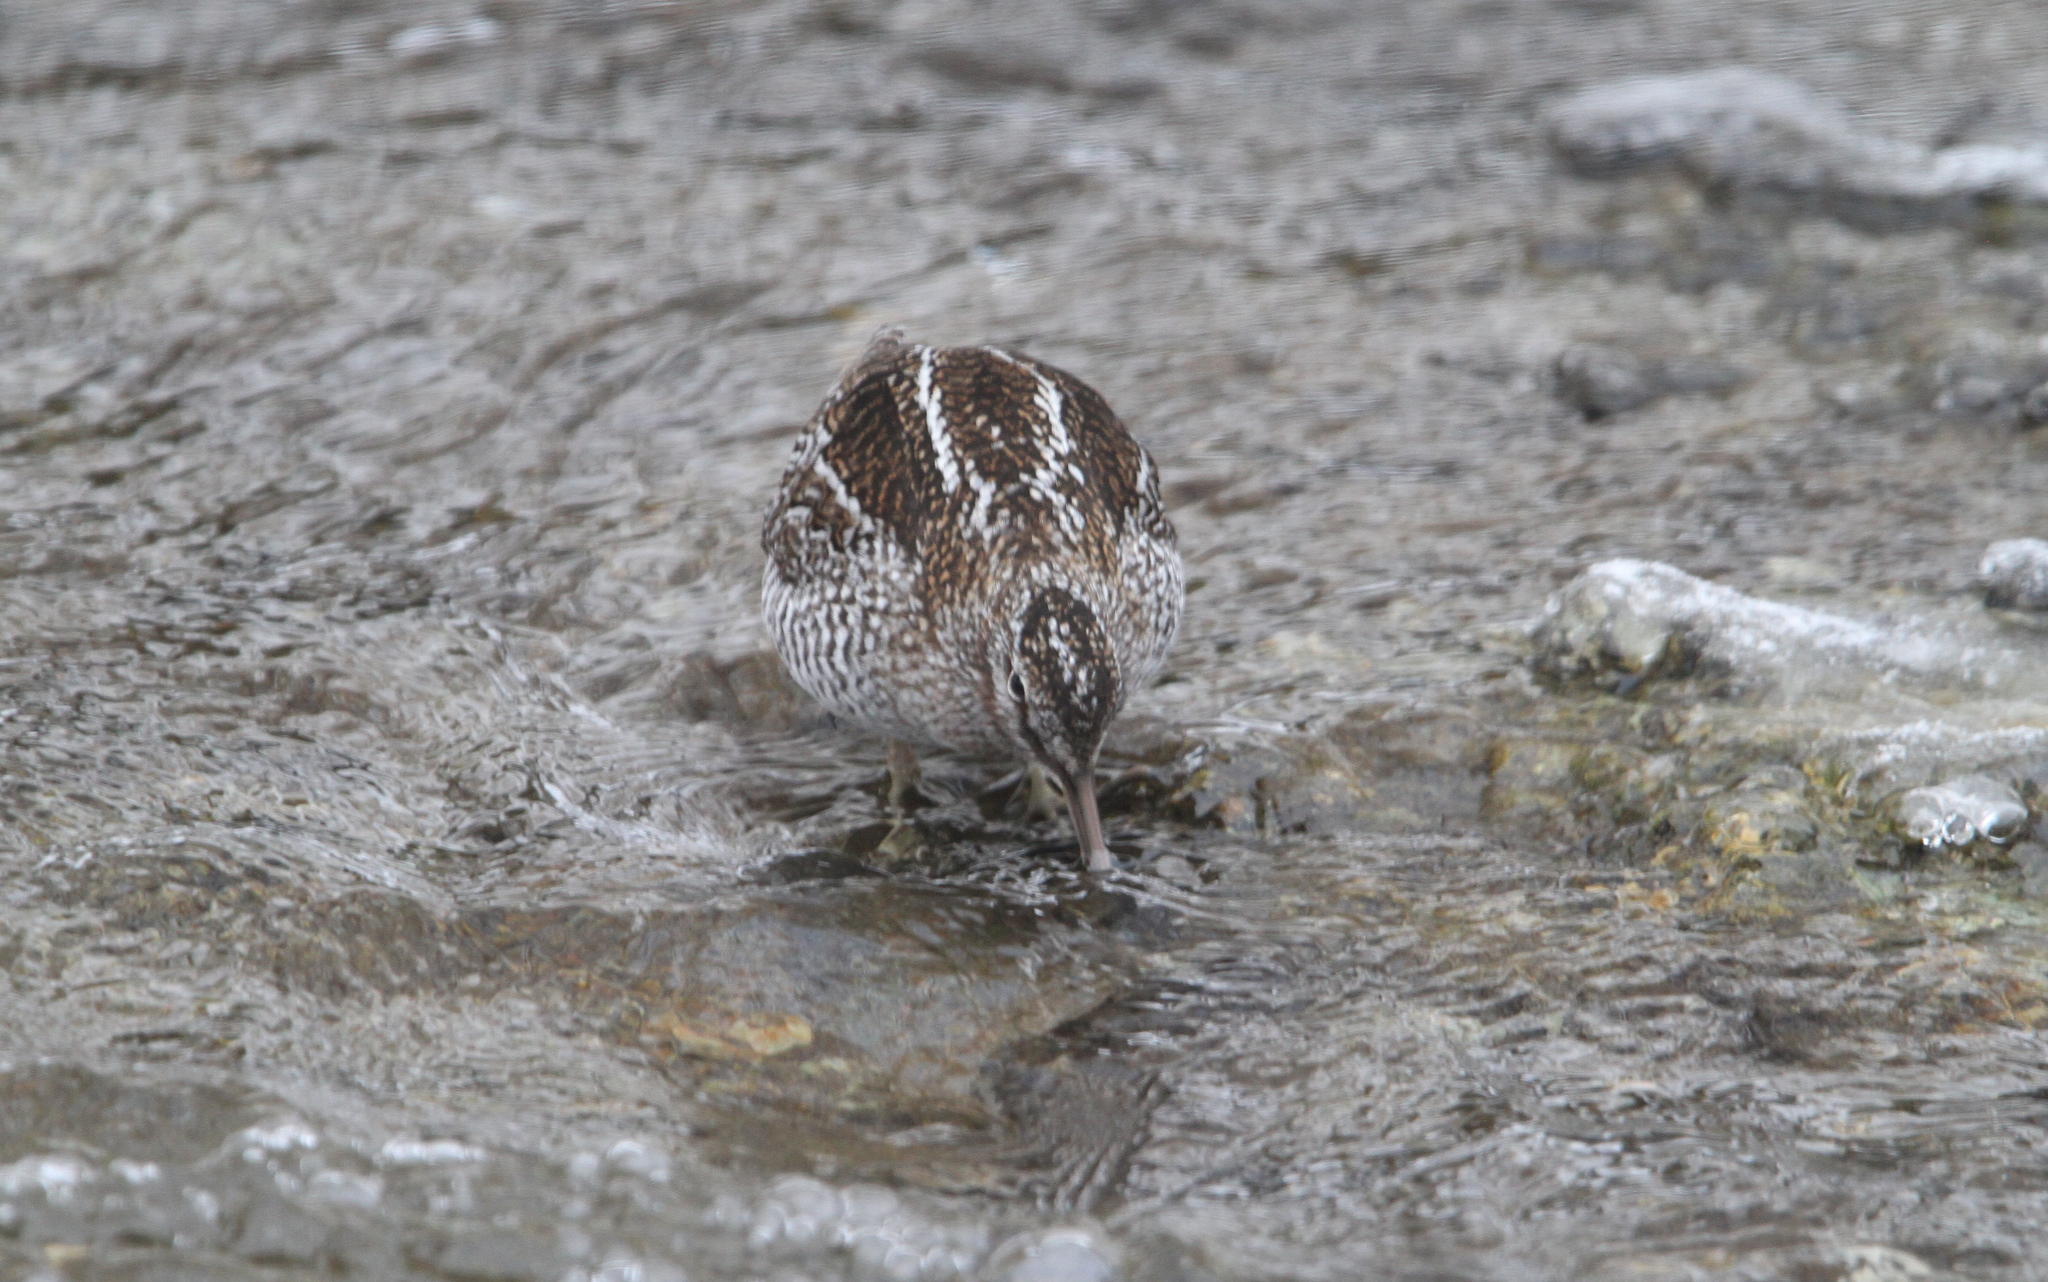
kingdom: Animalia
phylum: Chordata
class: Aves
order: Charadriiformes
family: Scolopacidae
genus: Gallinago
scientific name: Gallinago solitaria
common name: Solitary snipe
